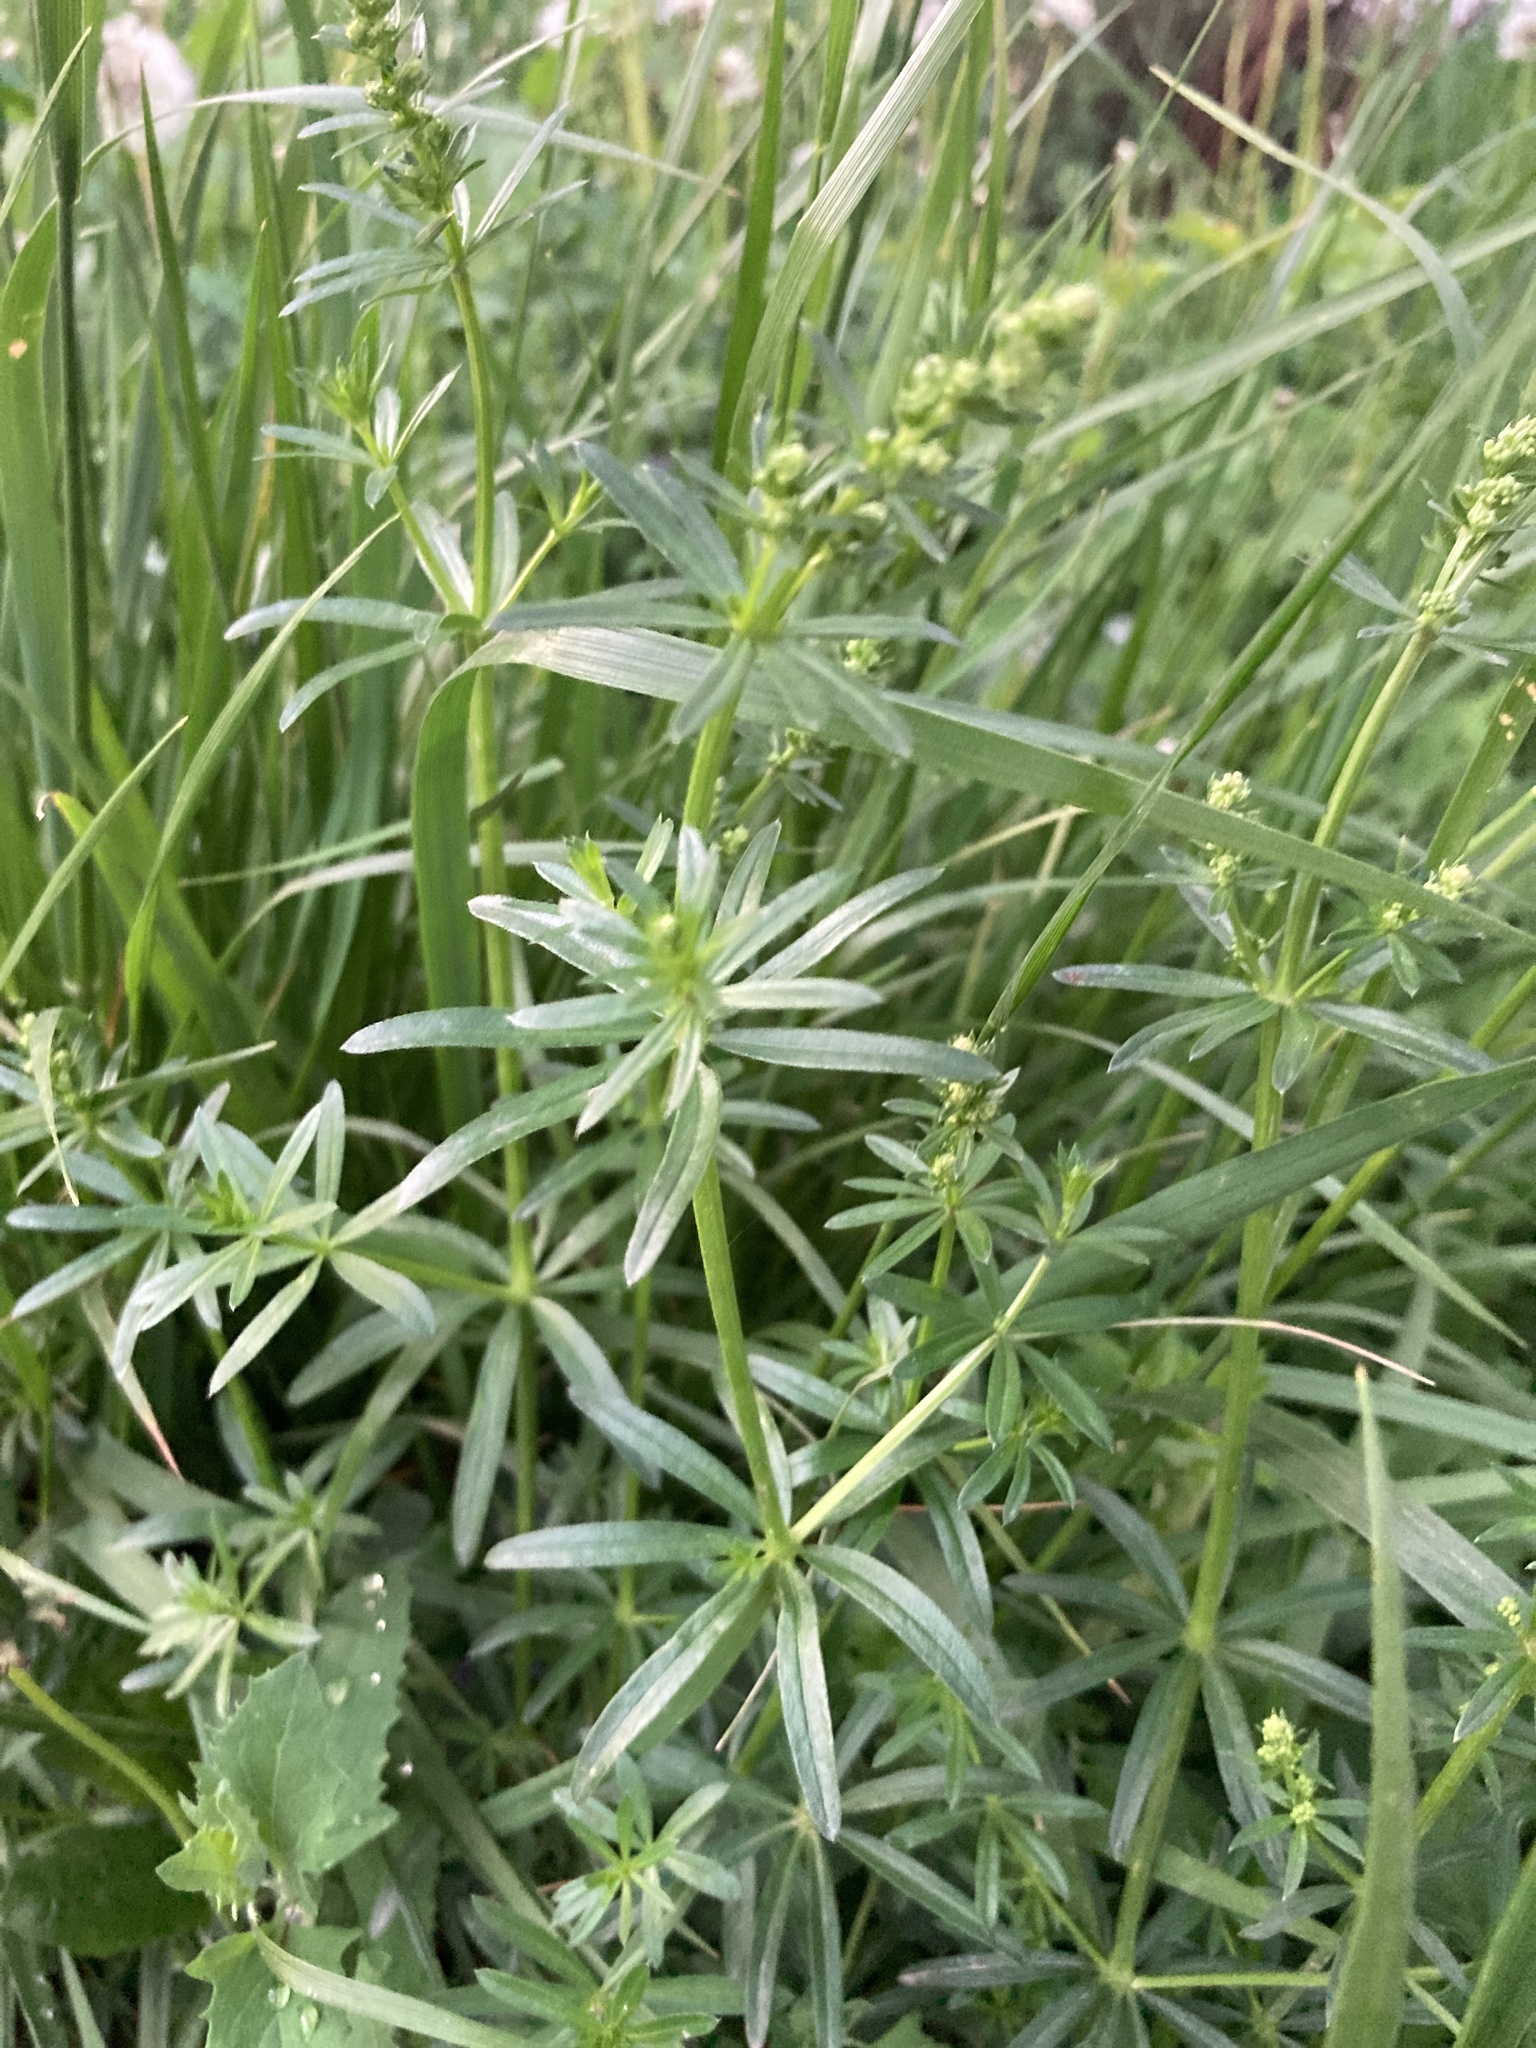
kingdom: Plantae
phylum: Tracheophyta
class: Magnoliopsida
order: Gentianales
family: Rubiaceae
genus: Galium
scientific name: Galium mollugo
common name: Hedge bedstraw
